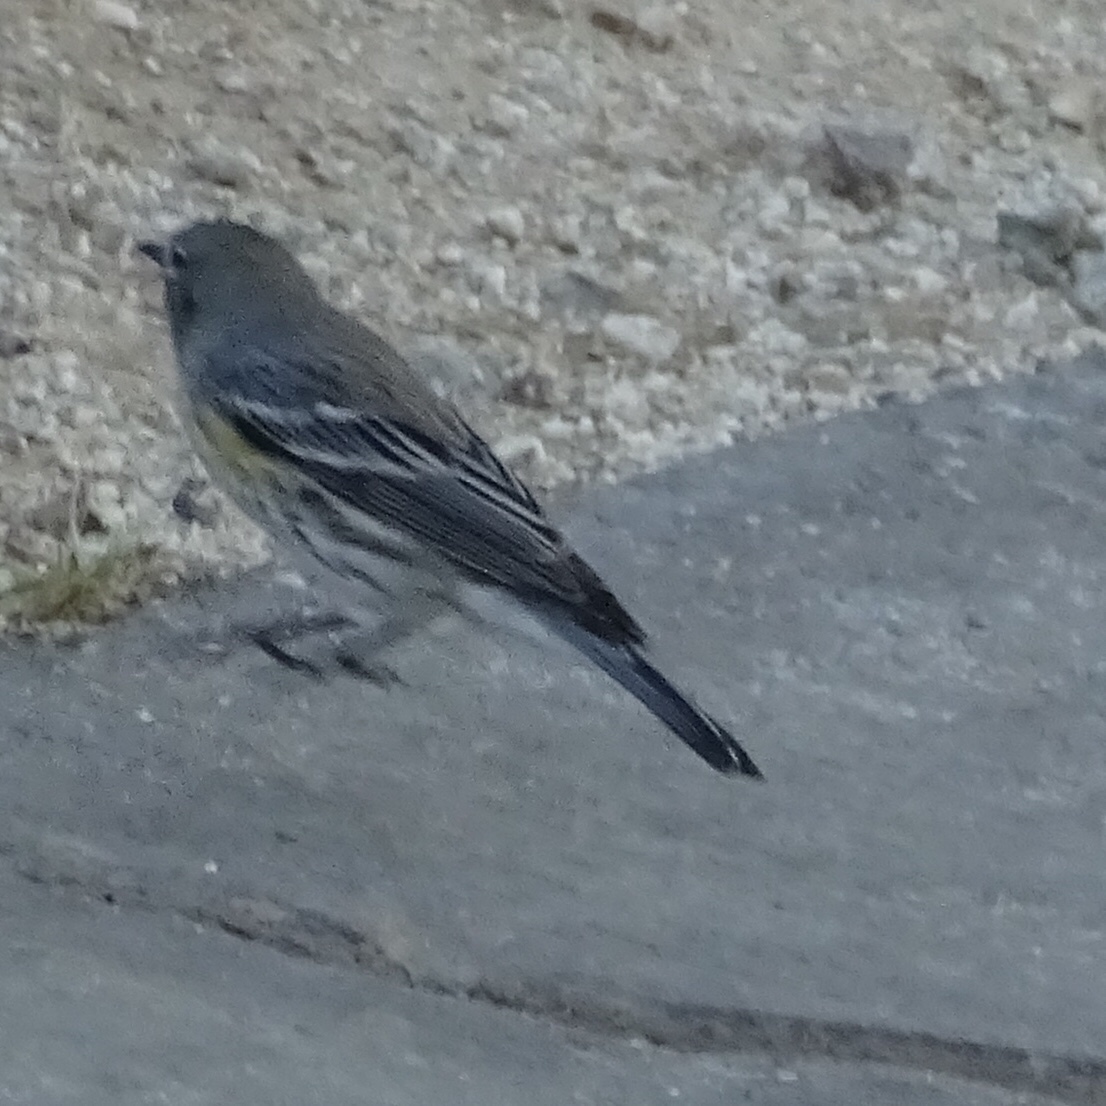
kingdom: Animalia
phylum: Chordata
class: Aves
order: Passeriformes
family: Parulidae
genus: Setophaga
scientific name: Setophaga coronata
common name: Myrtle warbler
